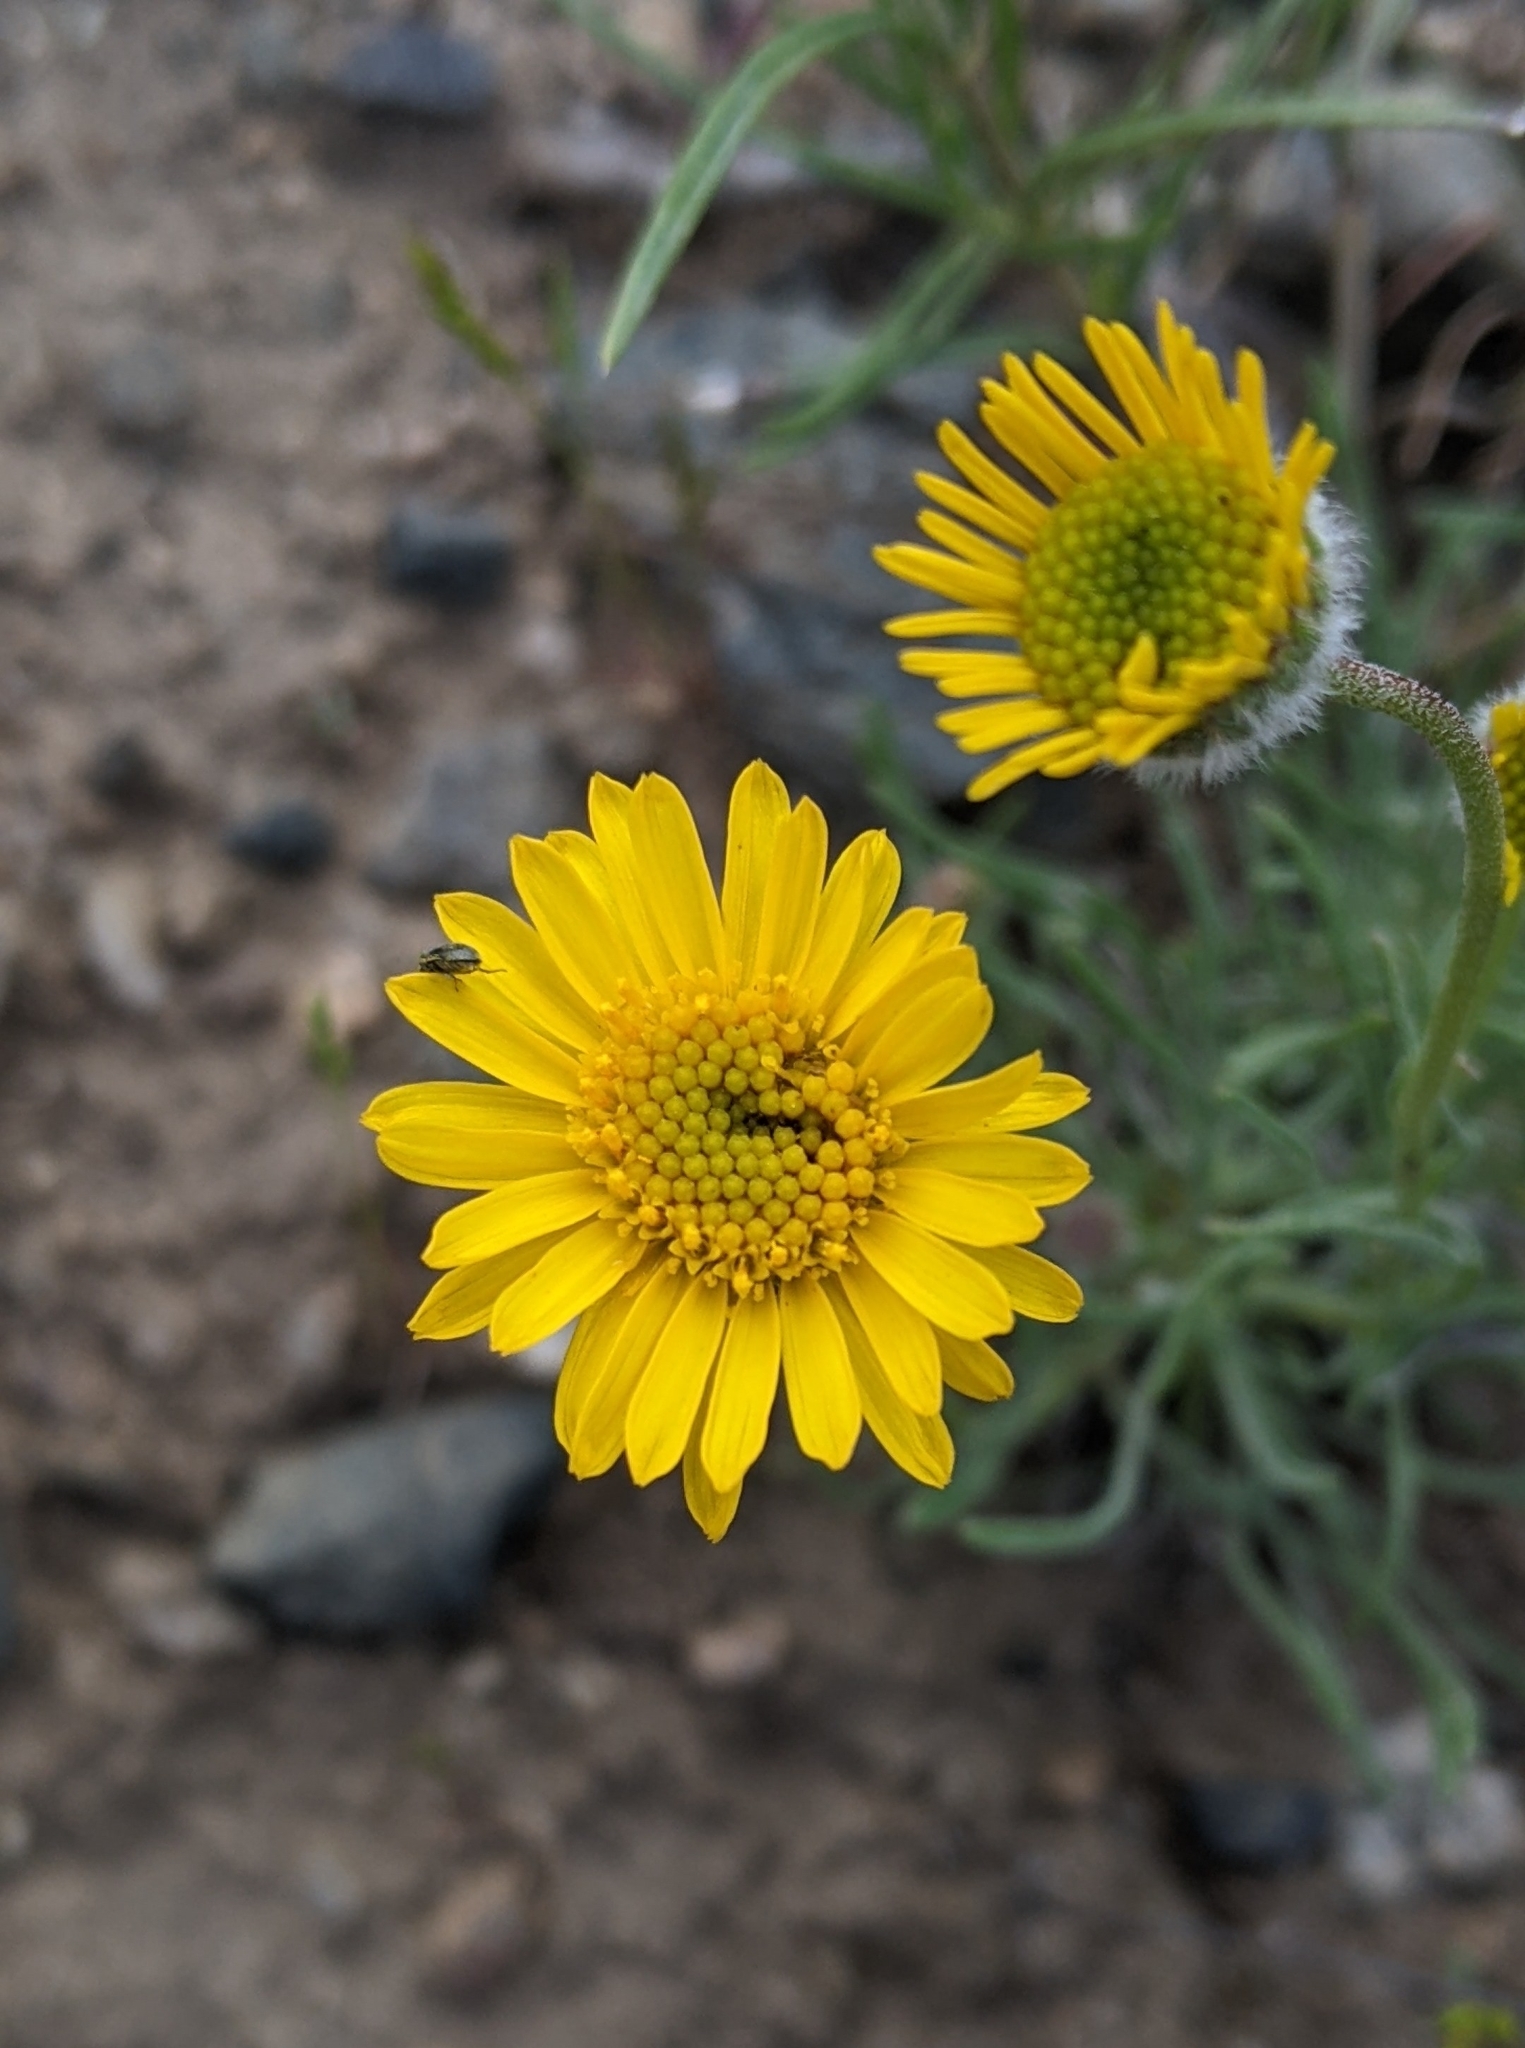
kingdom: Plantae
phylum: Tracheophyta
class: Magnoliopsida
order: Asterales
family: Asteraceae
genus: Erigeron
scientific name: Erigeron linearis
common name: Desert yellow fleabane
